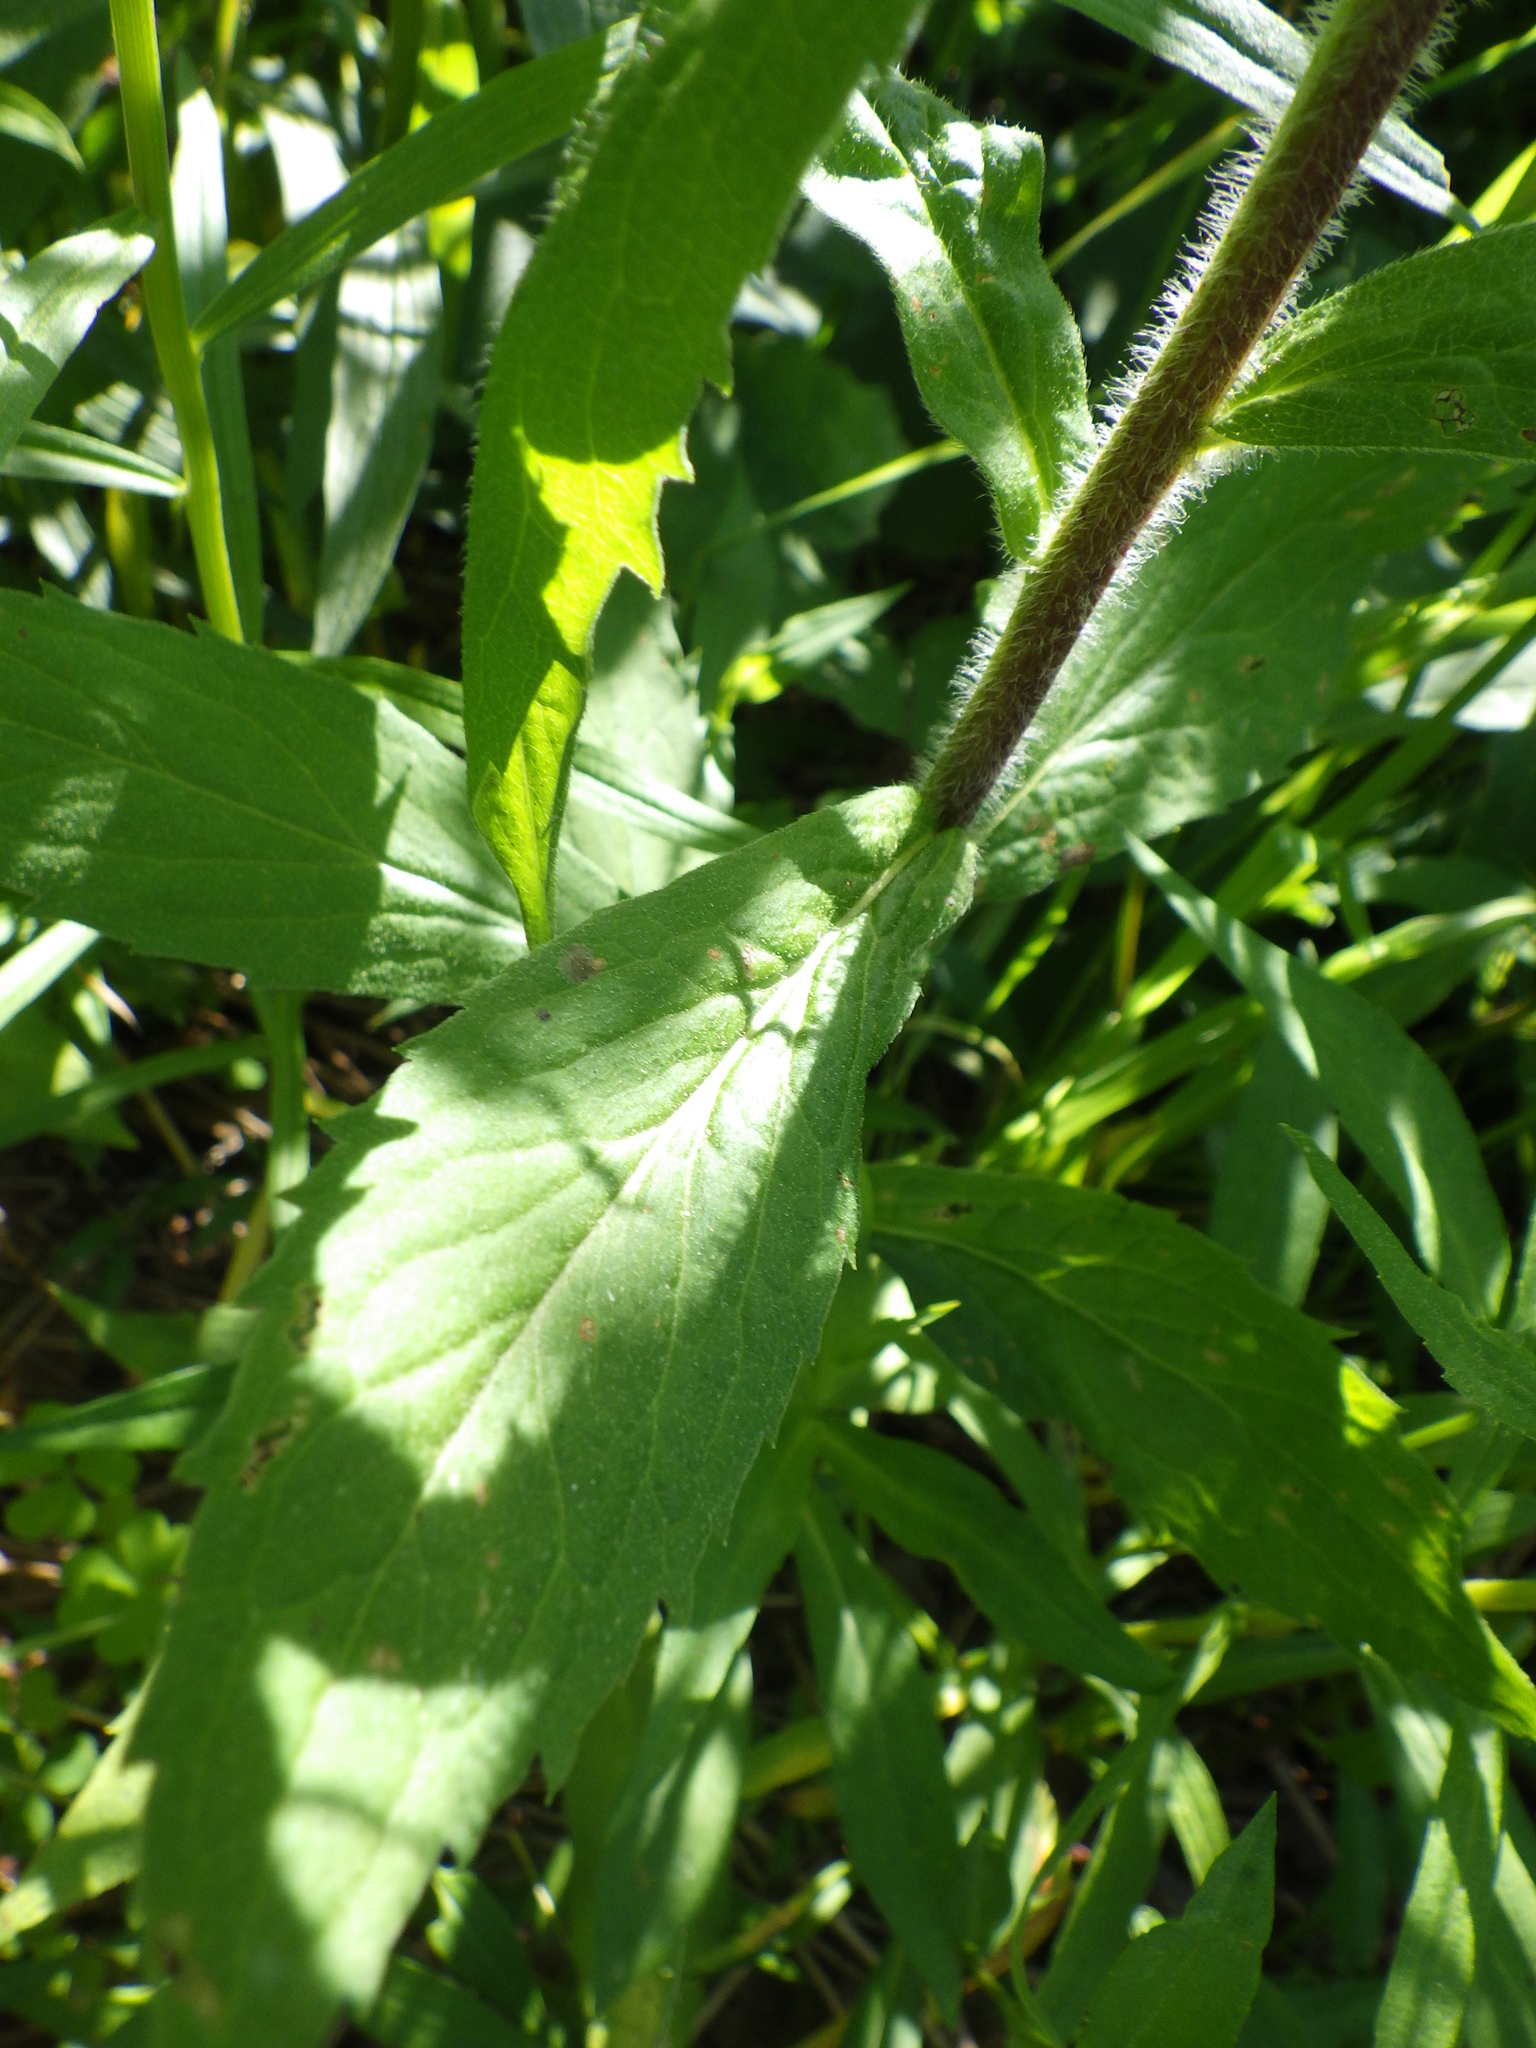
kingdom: Plantae
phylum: Tracheophyta
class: Magnoliopsida
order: Asterales
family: Asteraceae
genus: Solidago
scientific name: Solidago rugosa
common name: Rough-stemmed goldenrod
